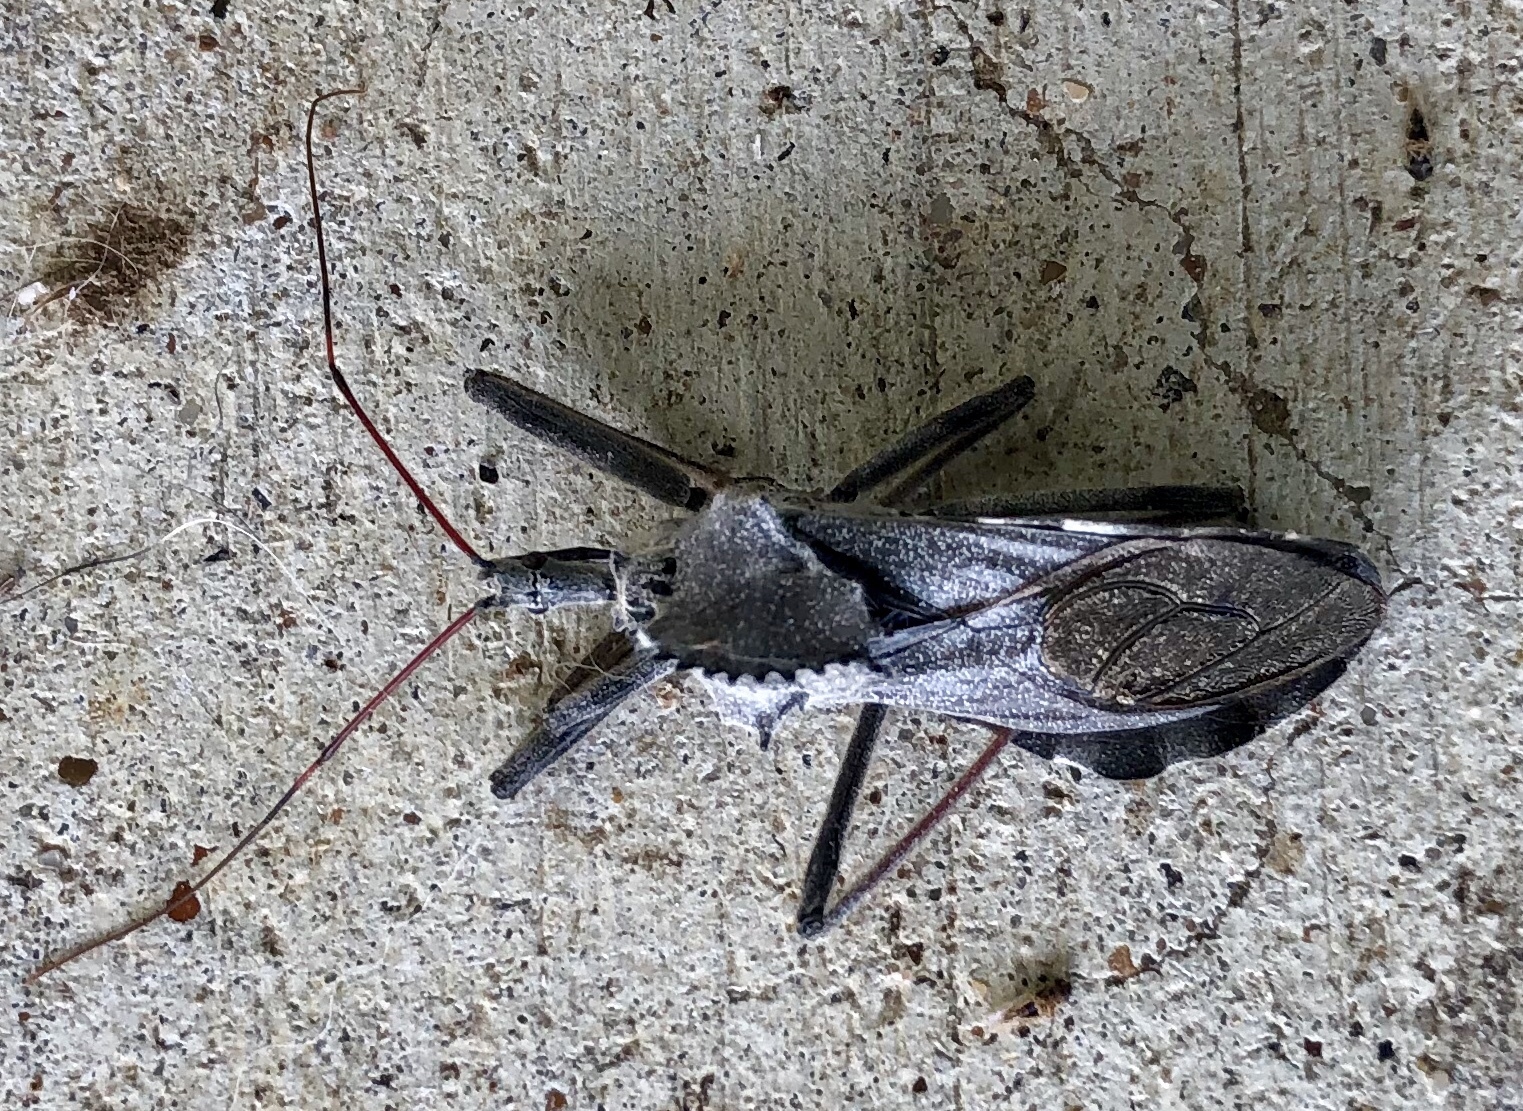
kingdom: Animalia
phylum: Arthropoda
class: Insecta
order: Hemiptera
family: Reduviidae
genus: Arilus
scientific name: Arilus cristatus
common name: North american wheel bug
